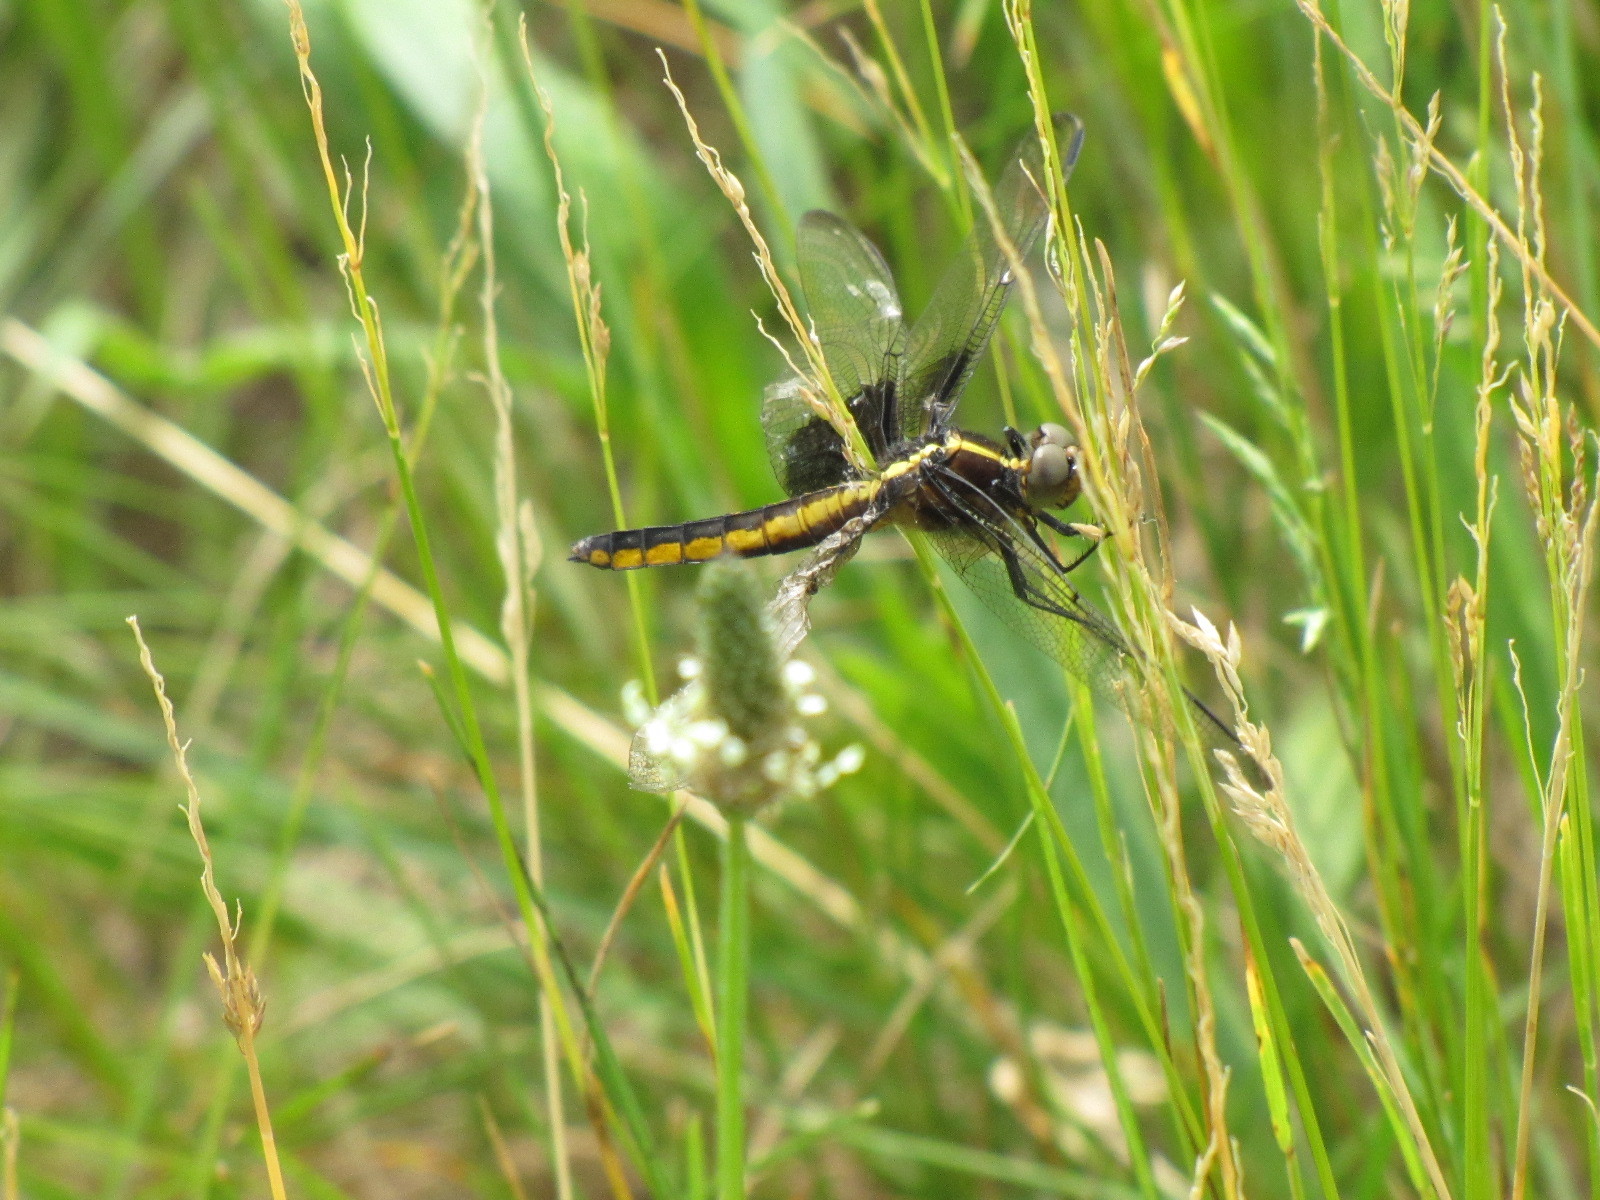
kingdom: Animalia
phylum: Arthropoda
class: Insecta
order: Odonata
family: Libellulidae
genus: Libellula
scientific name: Libellula luctuosa
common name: Widow skimmer
